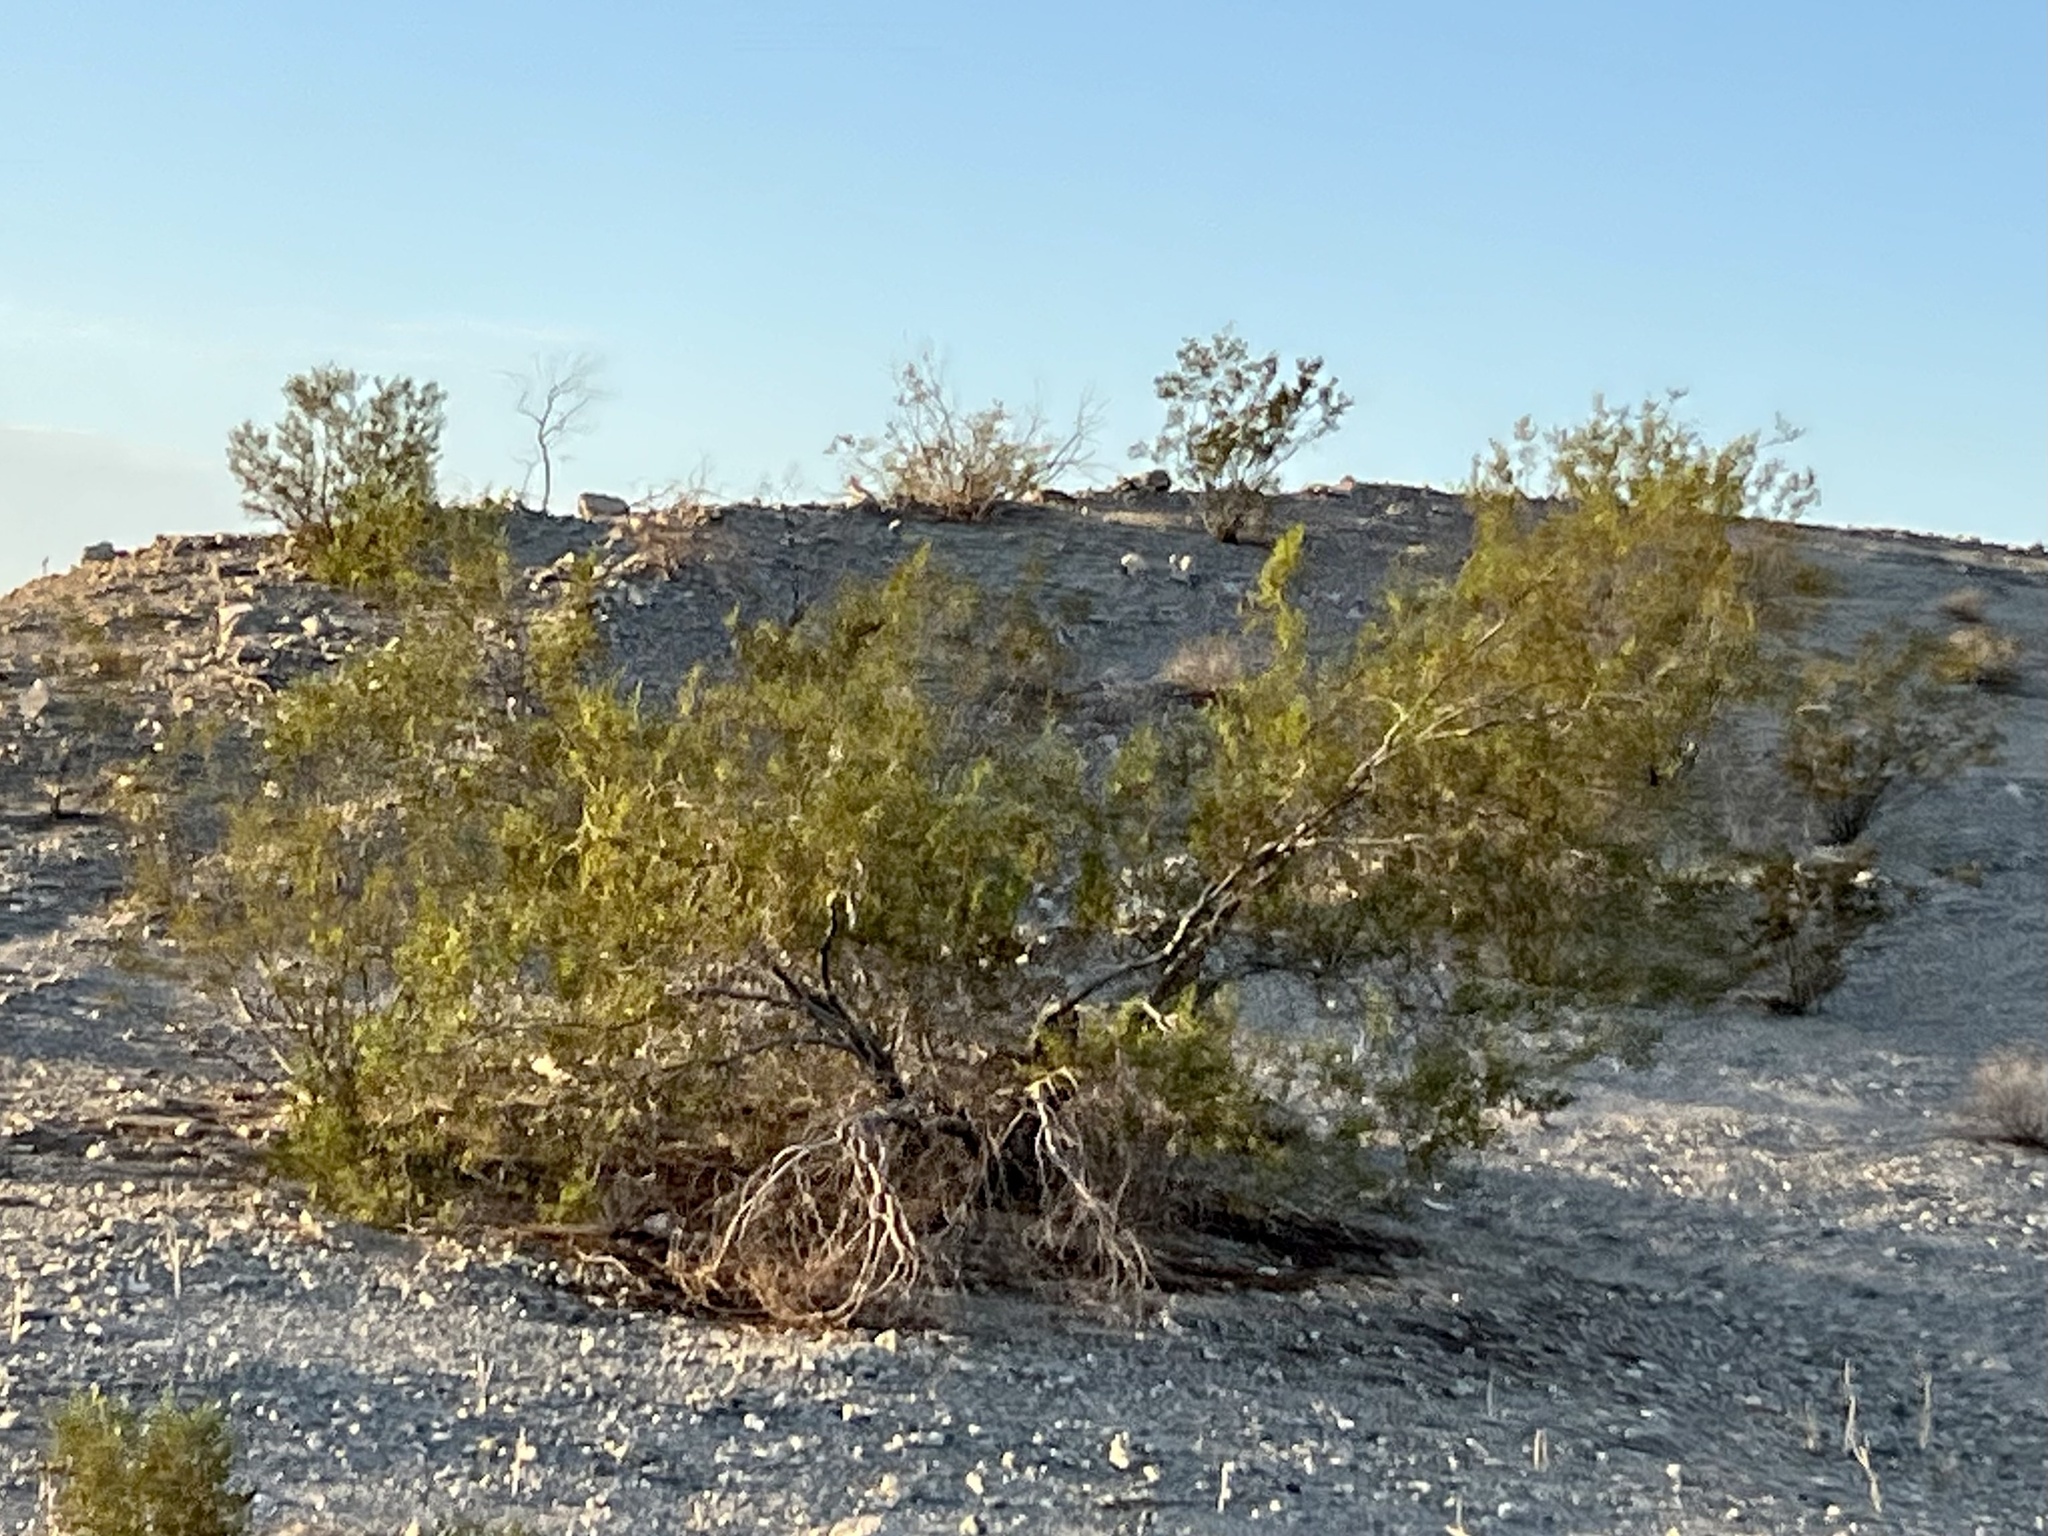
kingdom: Plantae
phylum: Tracheophyta
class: Magnoliopsida
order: Zygophyllales
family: Zygophyllaceae
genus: Larrea
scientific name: Larrea tridentata
